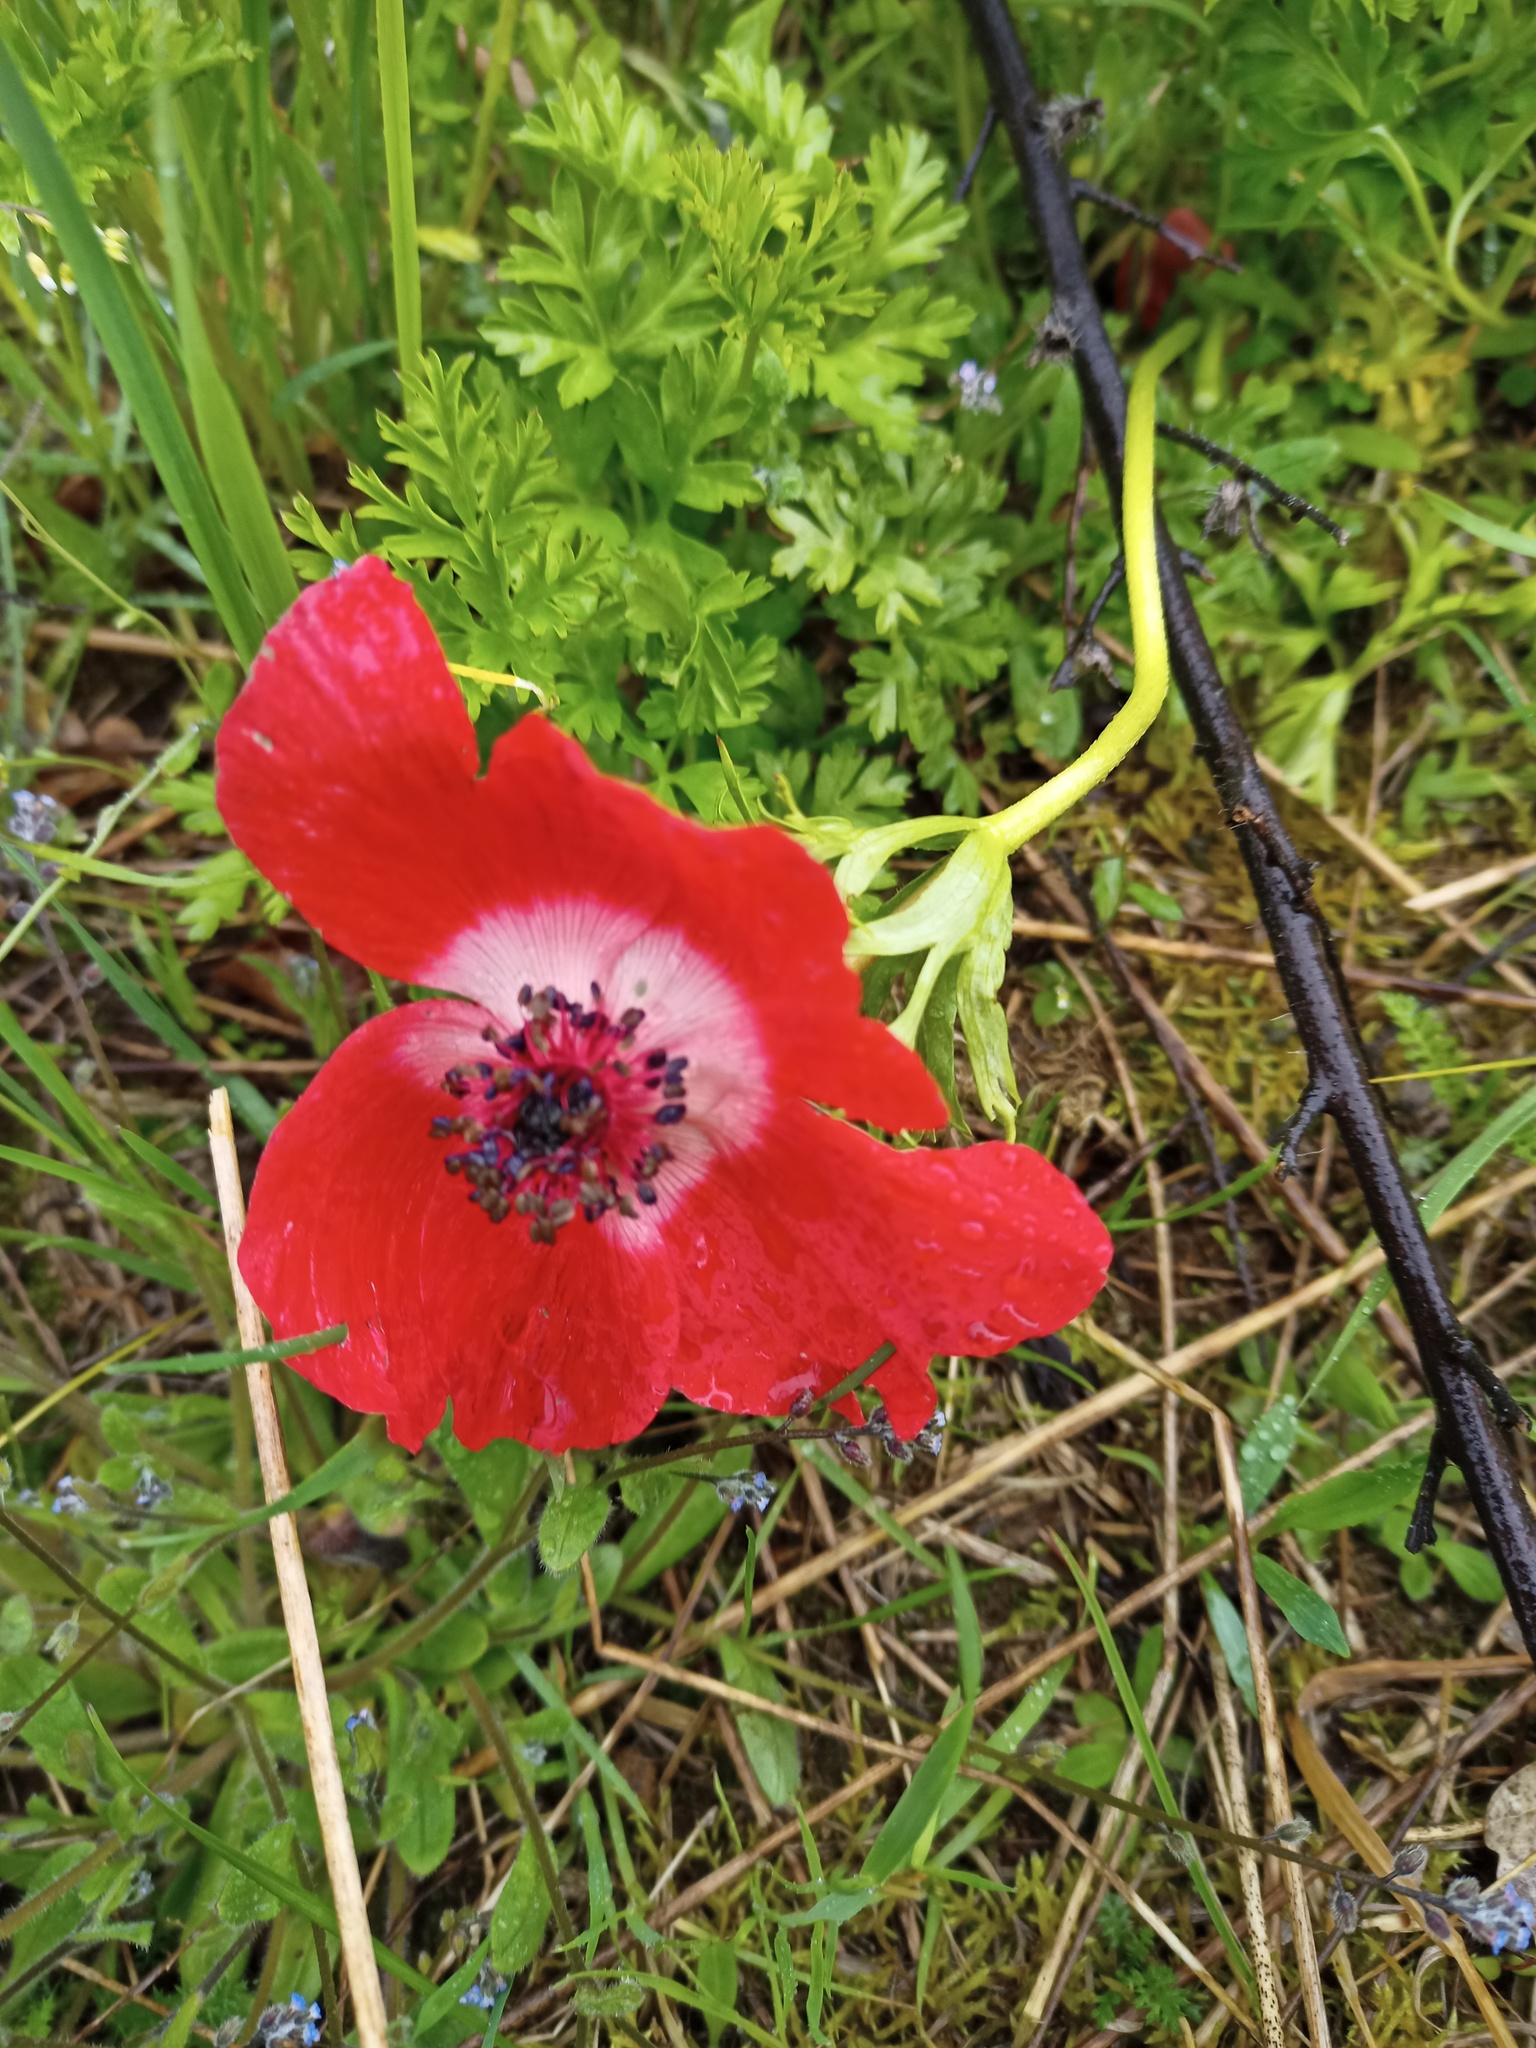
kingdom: Plantae
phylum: Tracheophyta
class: Magnoliopsida
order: Ranunculales
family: Ranunculaceae
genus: Anemone
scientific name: Anemone coronaria
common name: Poppy anemone
